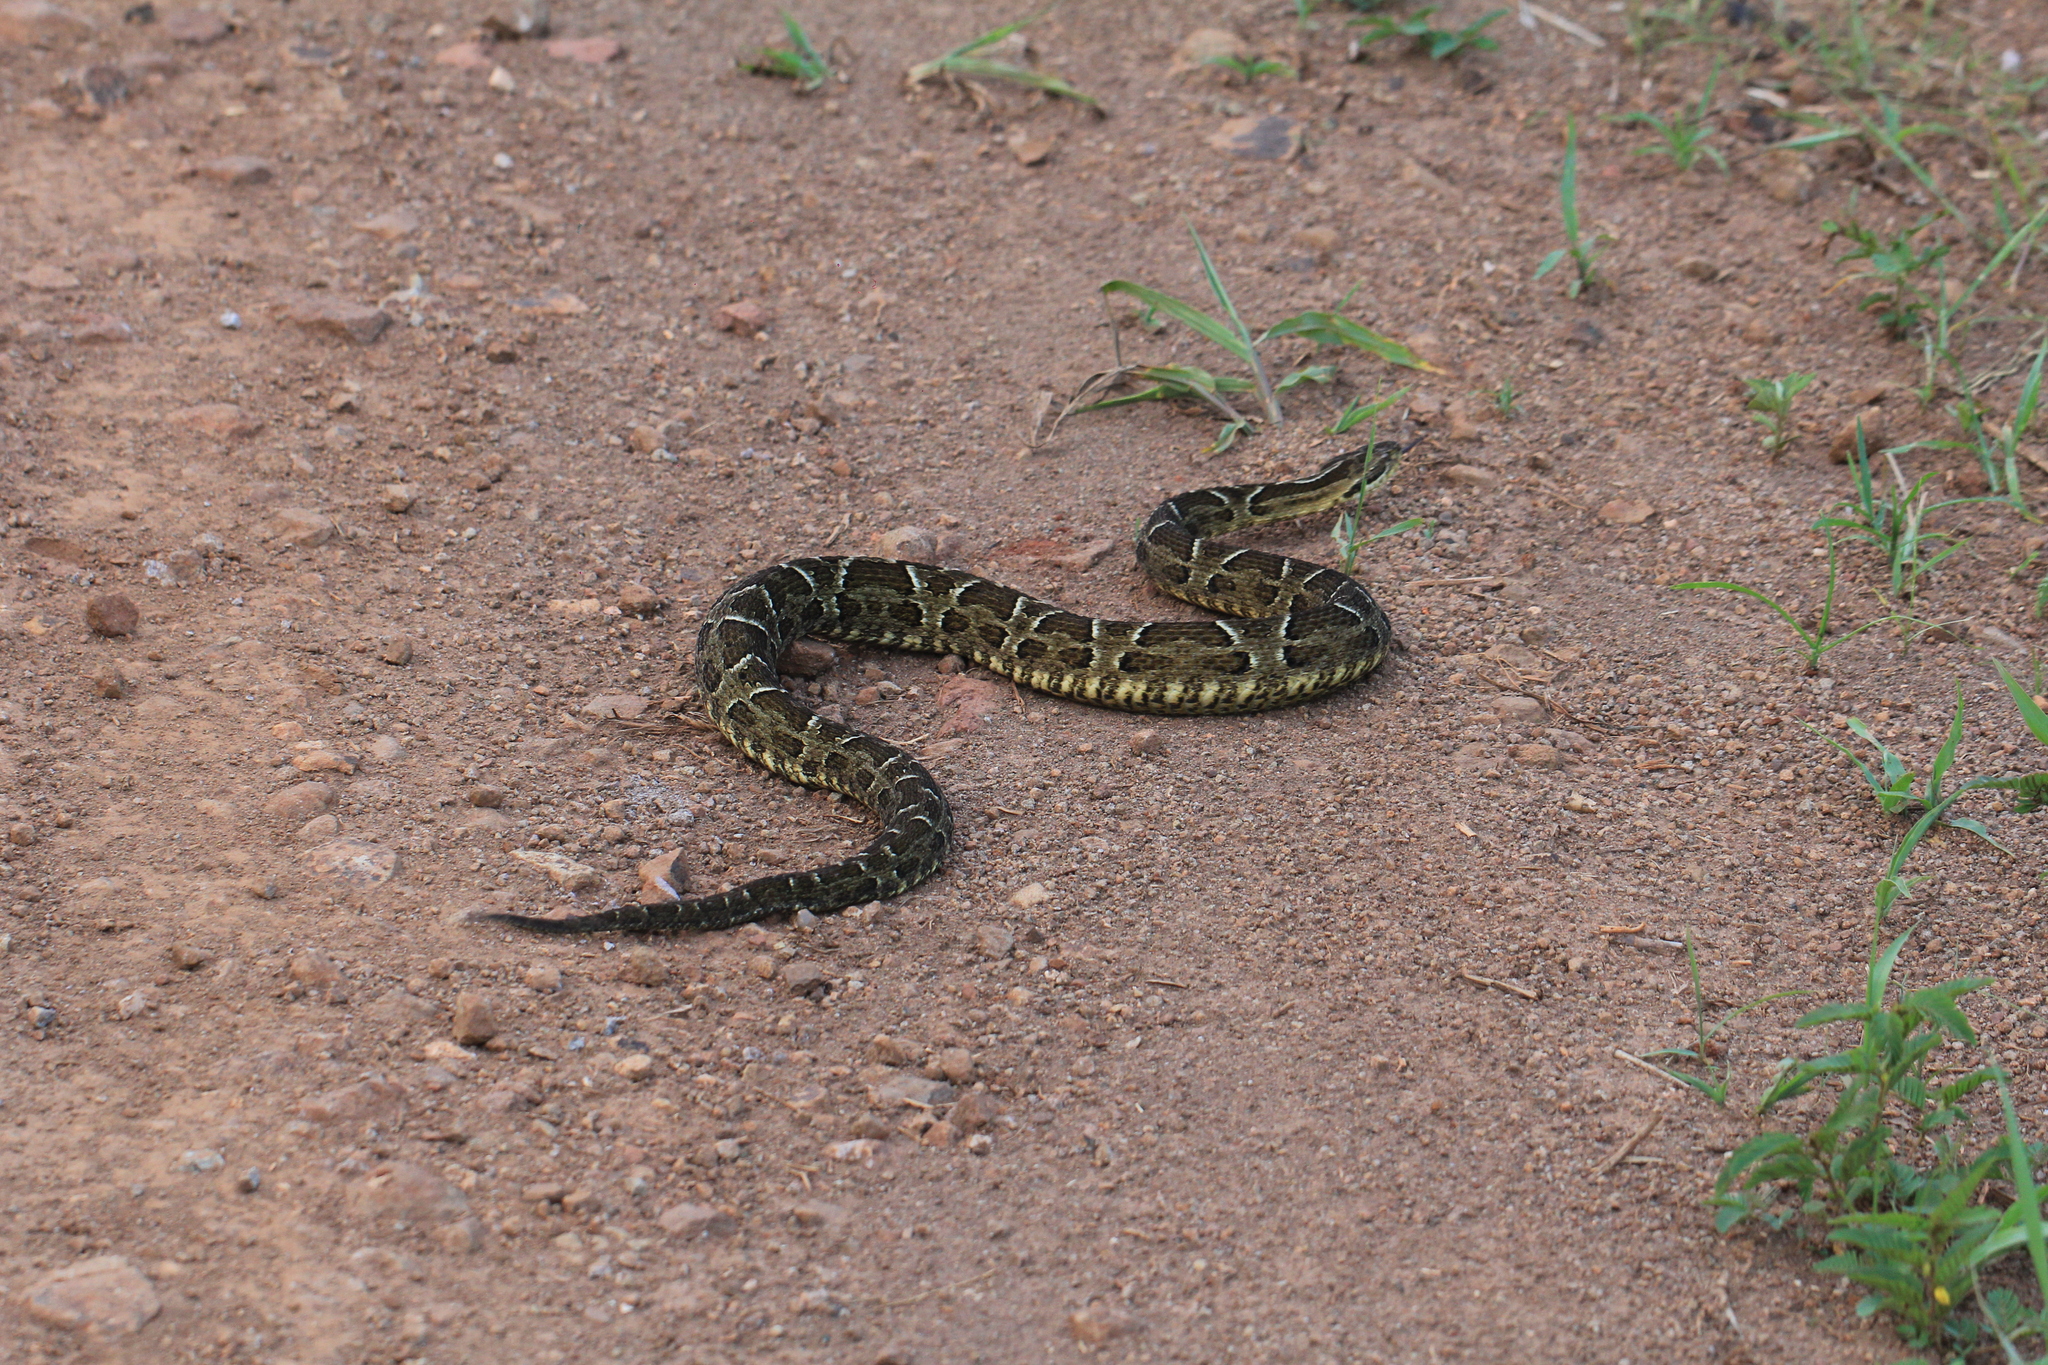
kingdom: Animalia
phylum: Chordata
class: Squamata
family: Viperidae
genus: Bothrops
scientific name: Bothrops pubescens
